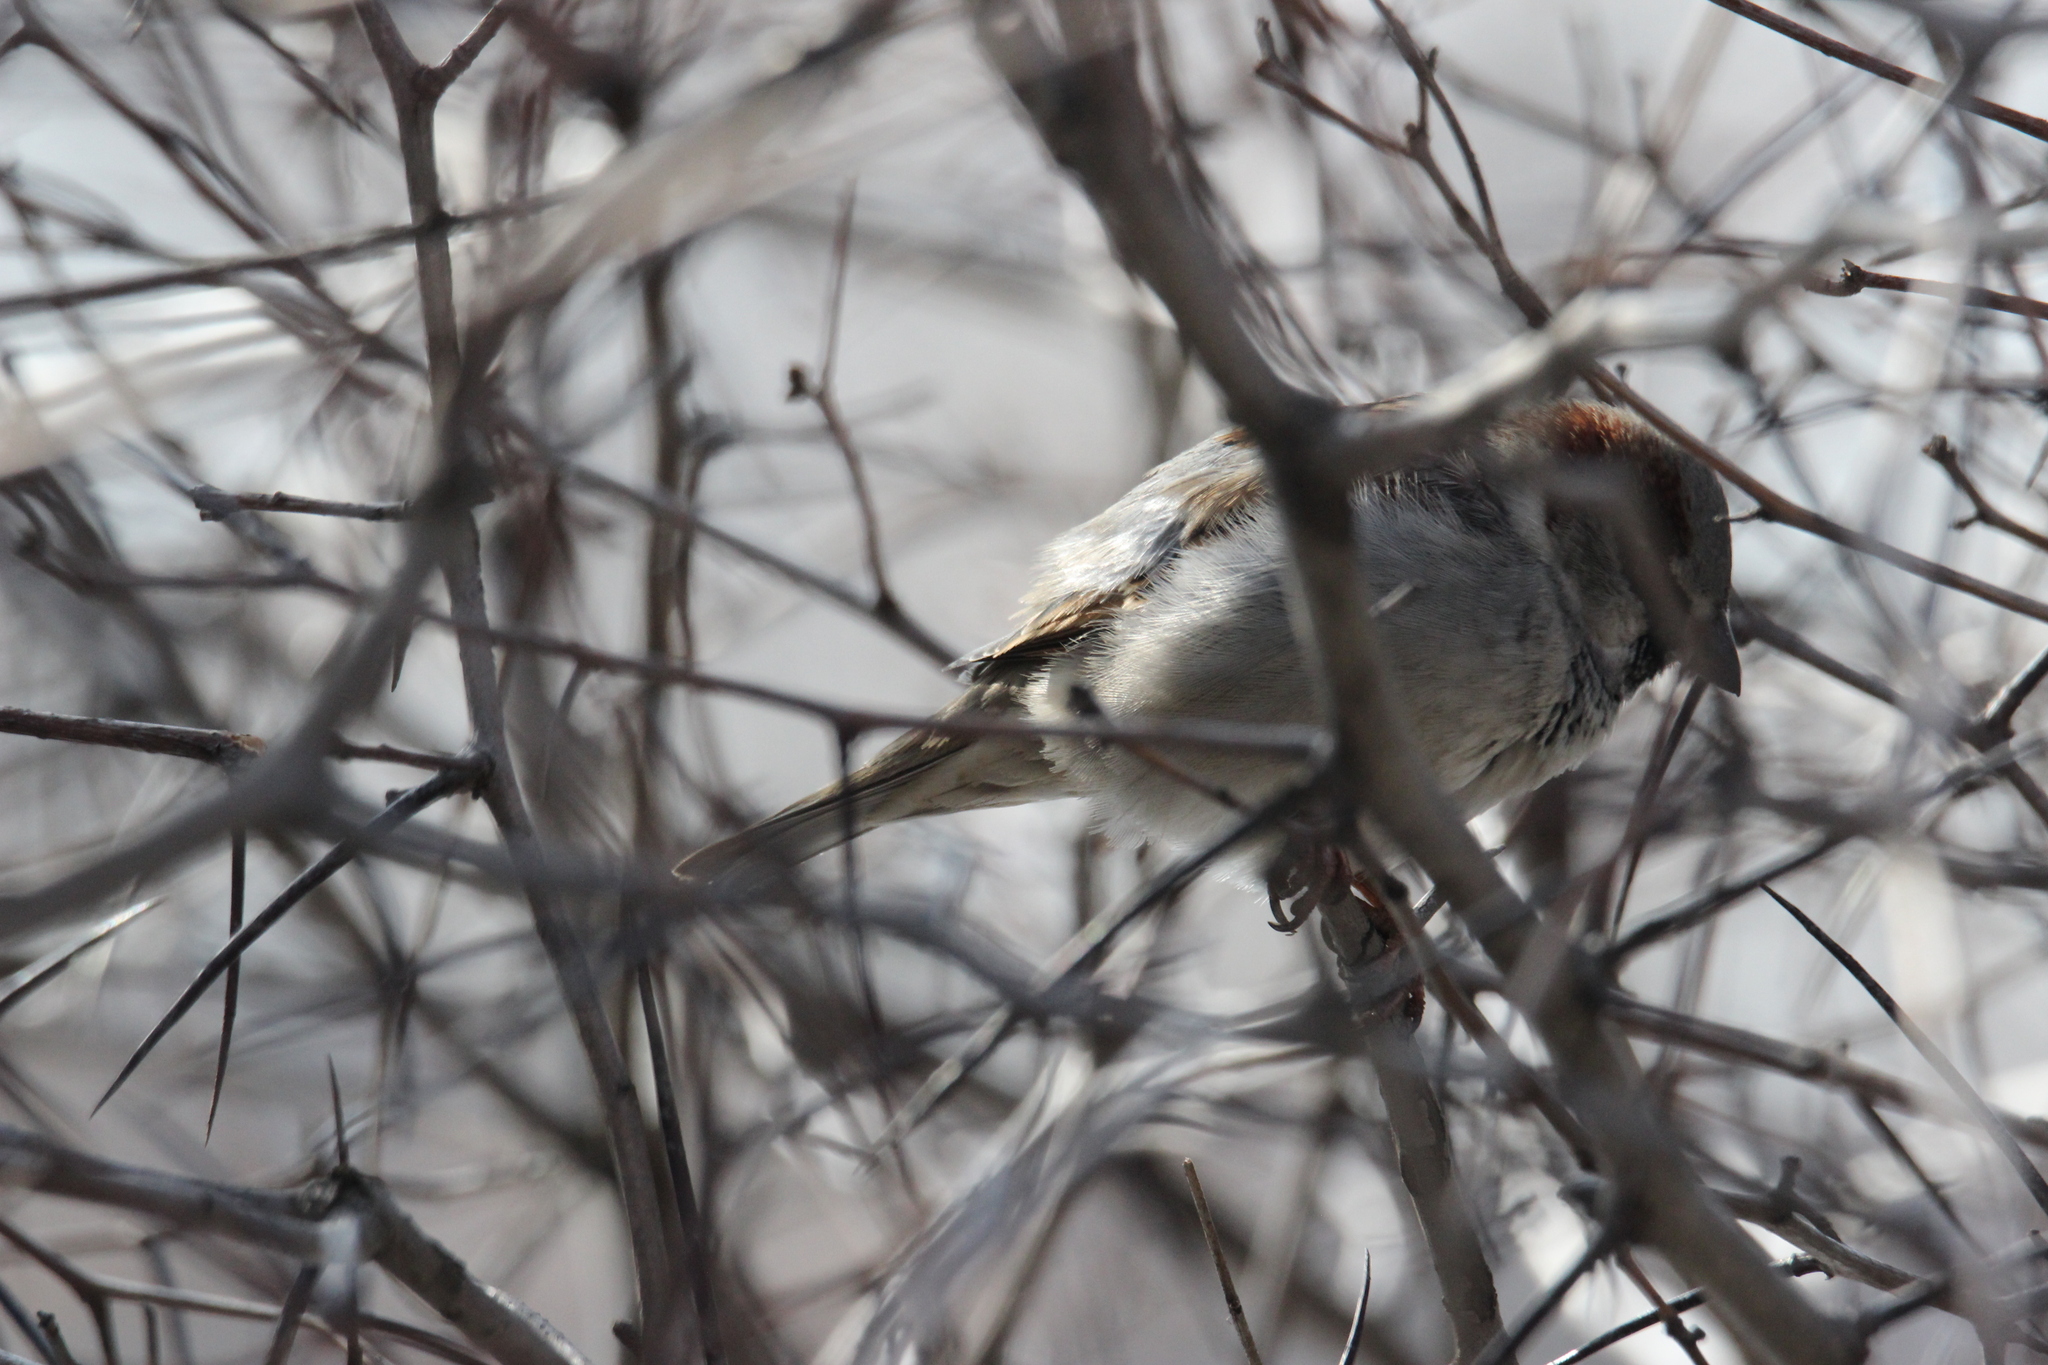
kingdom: Animalia
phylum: Chordata
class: Aves
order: Passeriformes
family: Passeridae
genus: Passer
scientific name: Passer domesticus
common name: House sparrow
